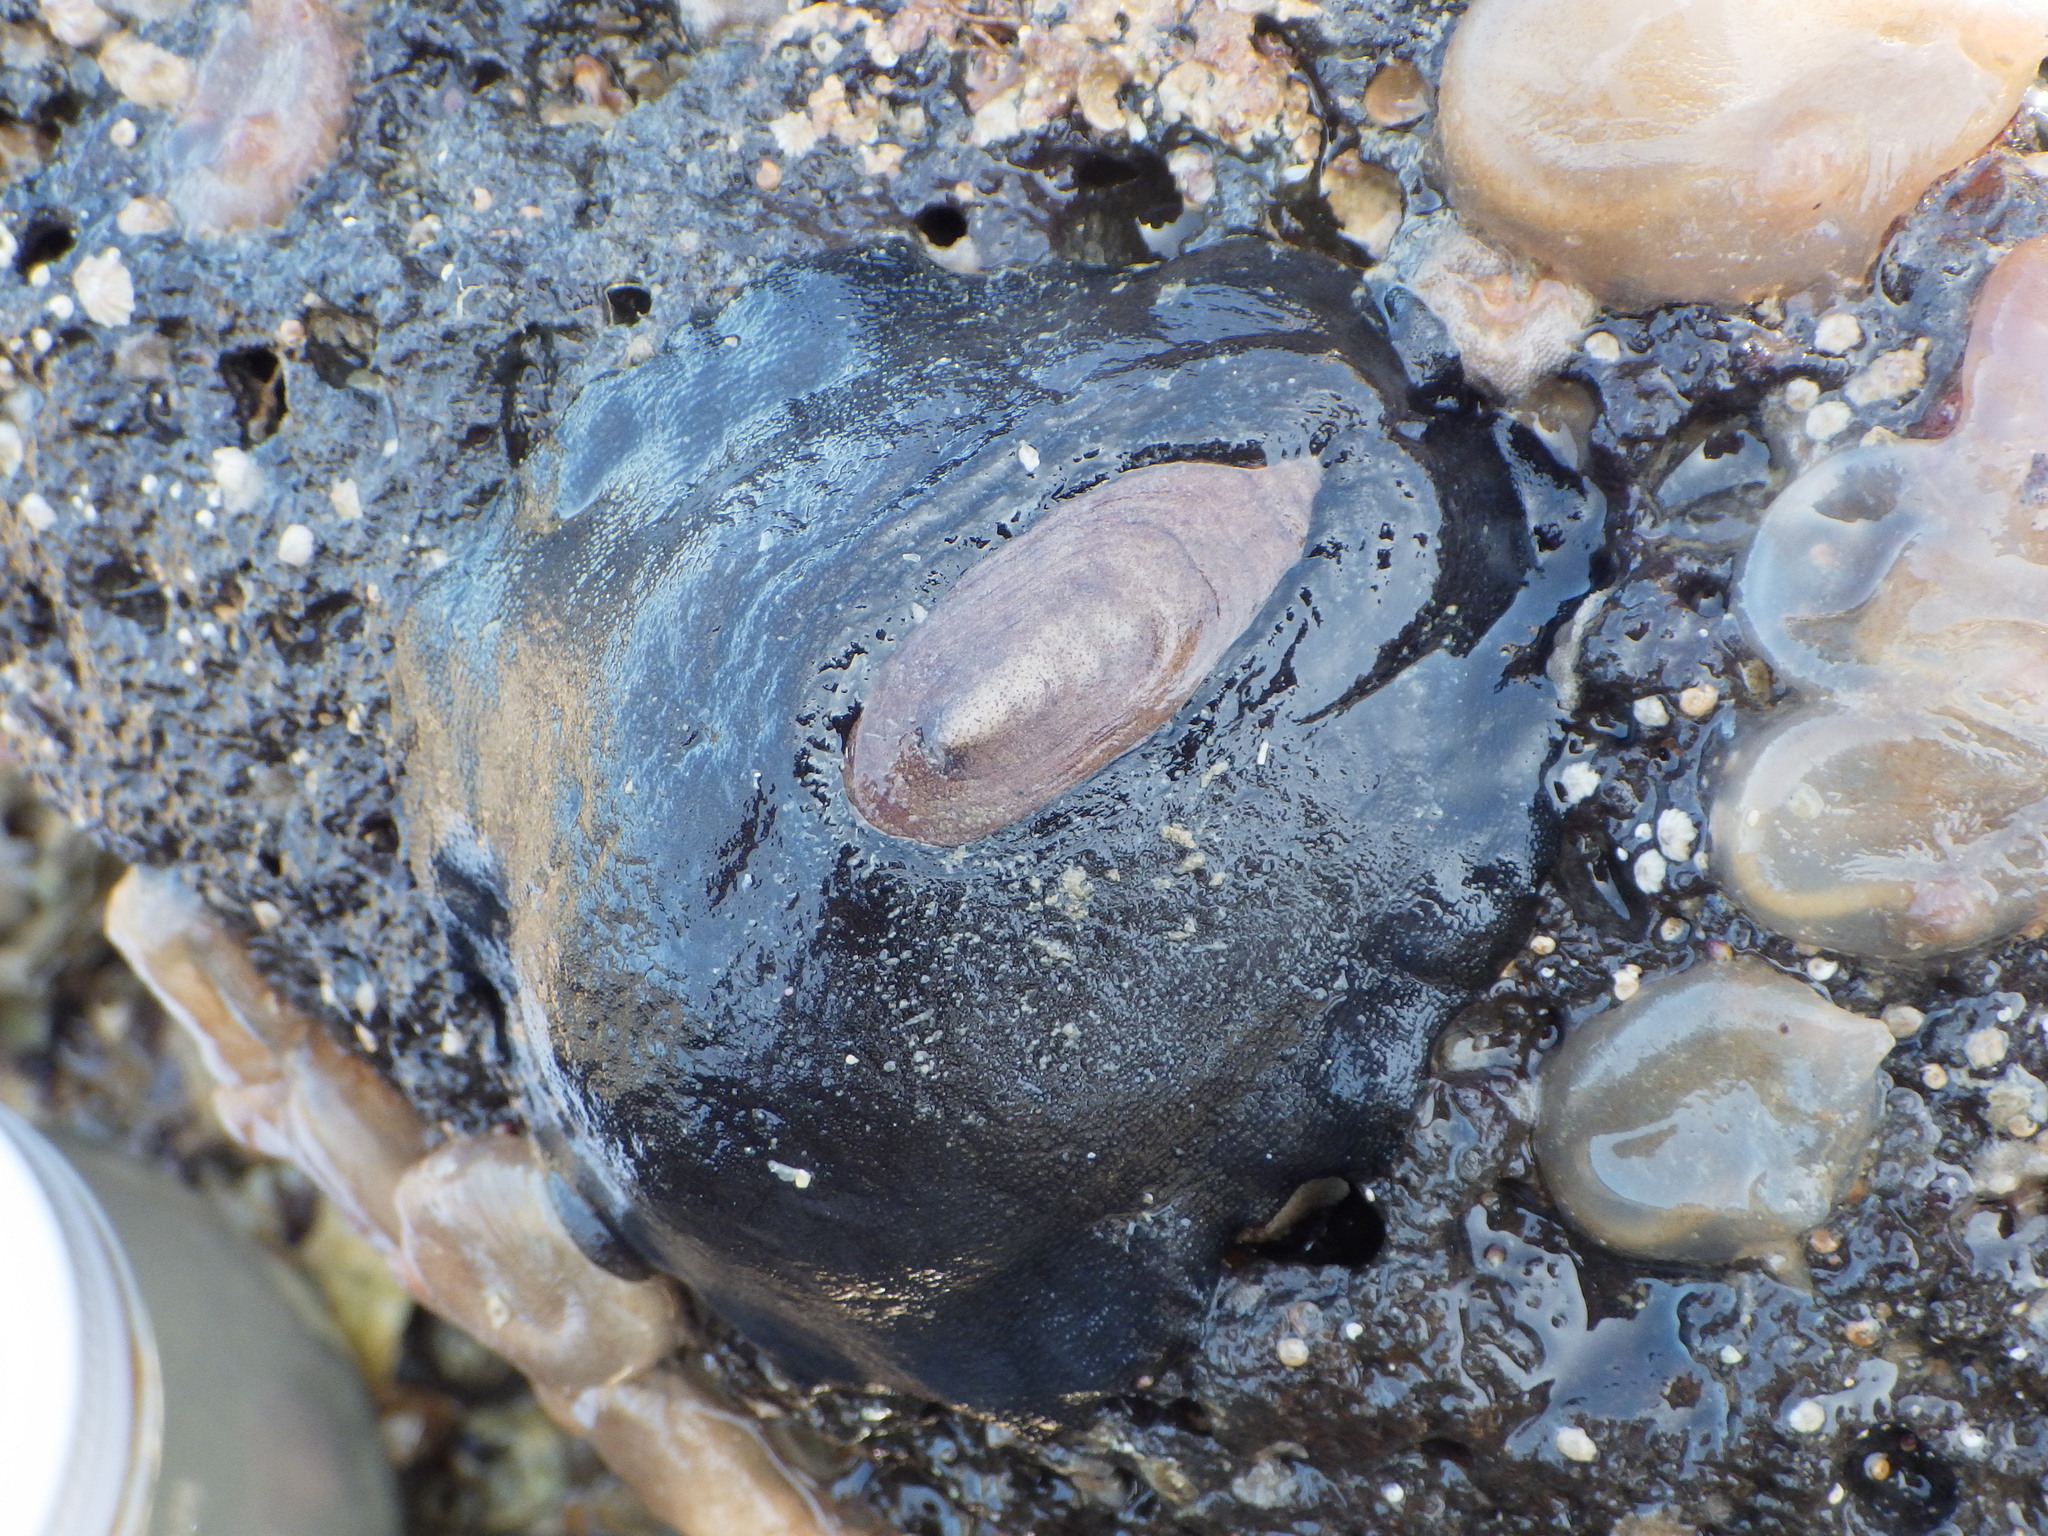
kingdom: Animalia
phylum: Mollusca
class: Gastropoda
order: Lepetellida
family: Fissurellidae
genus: Scutus
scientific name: Scutus breviculus
